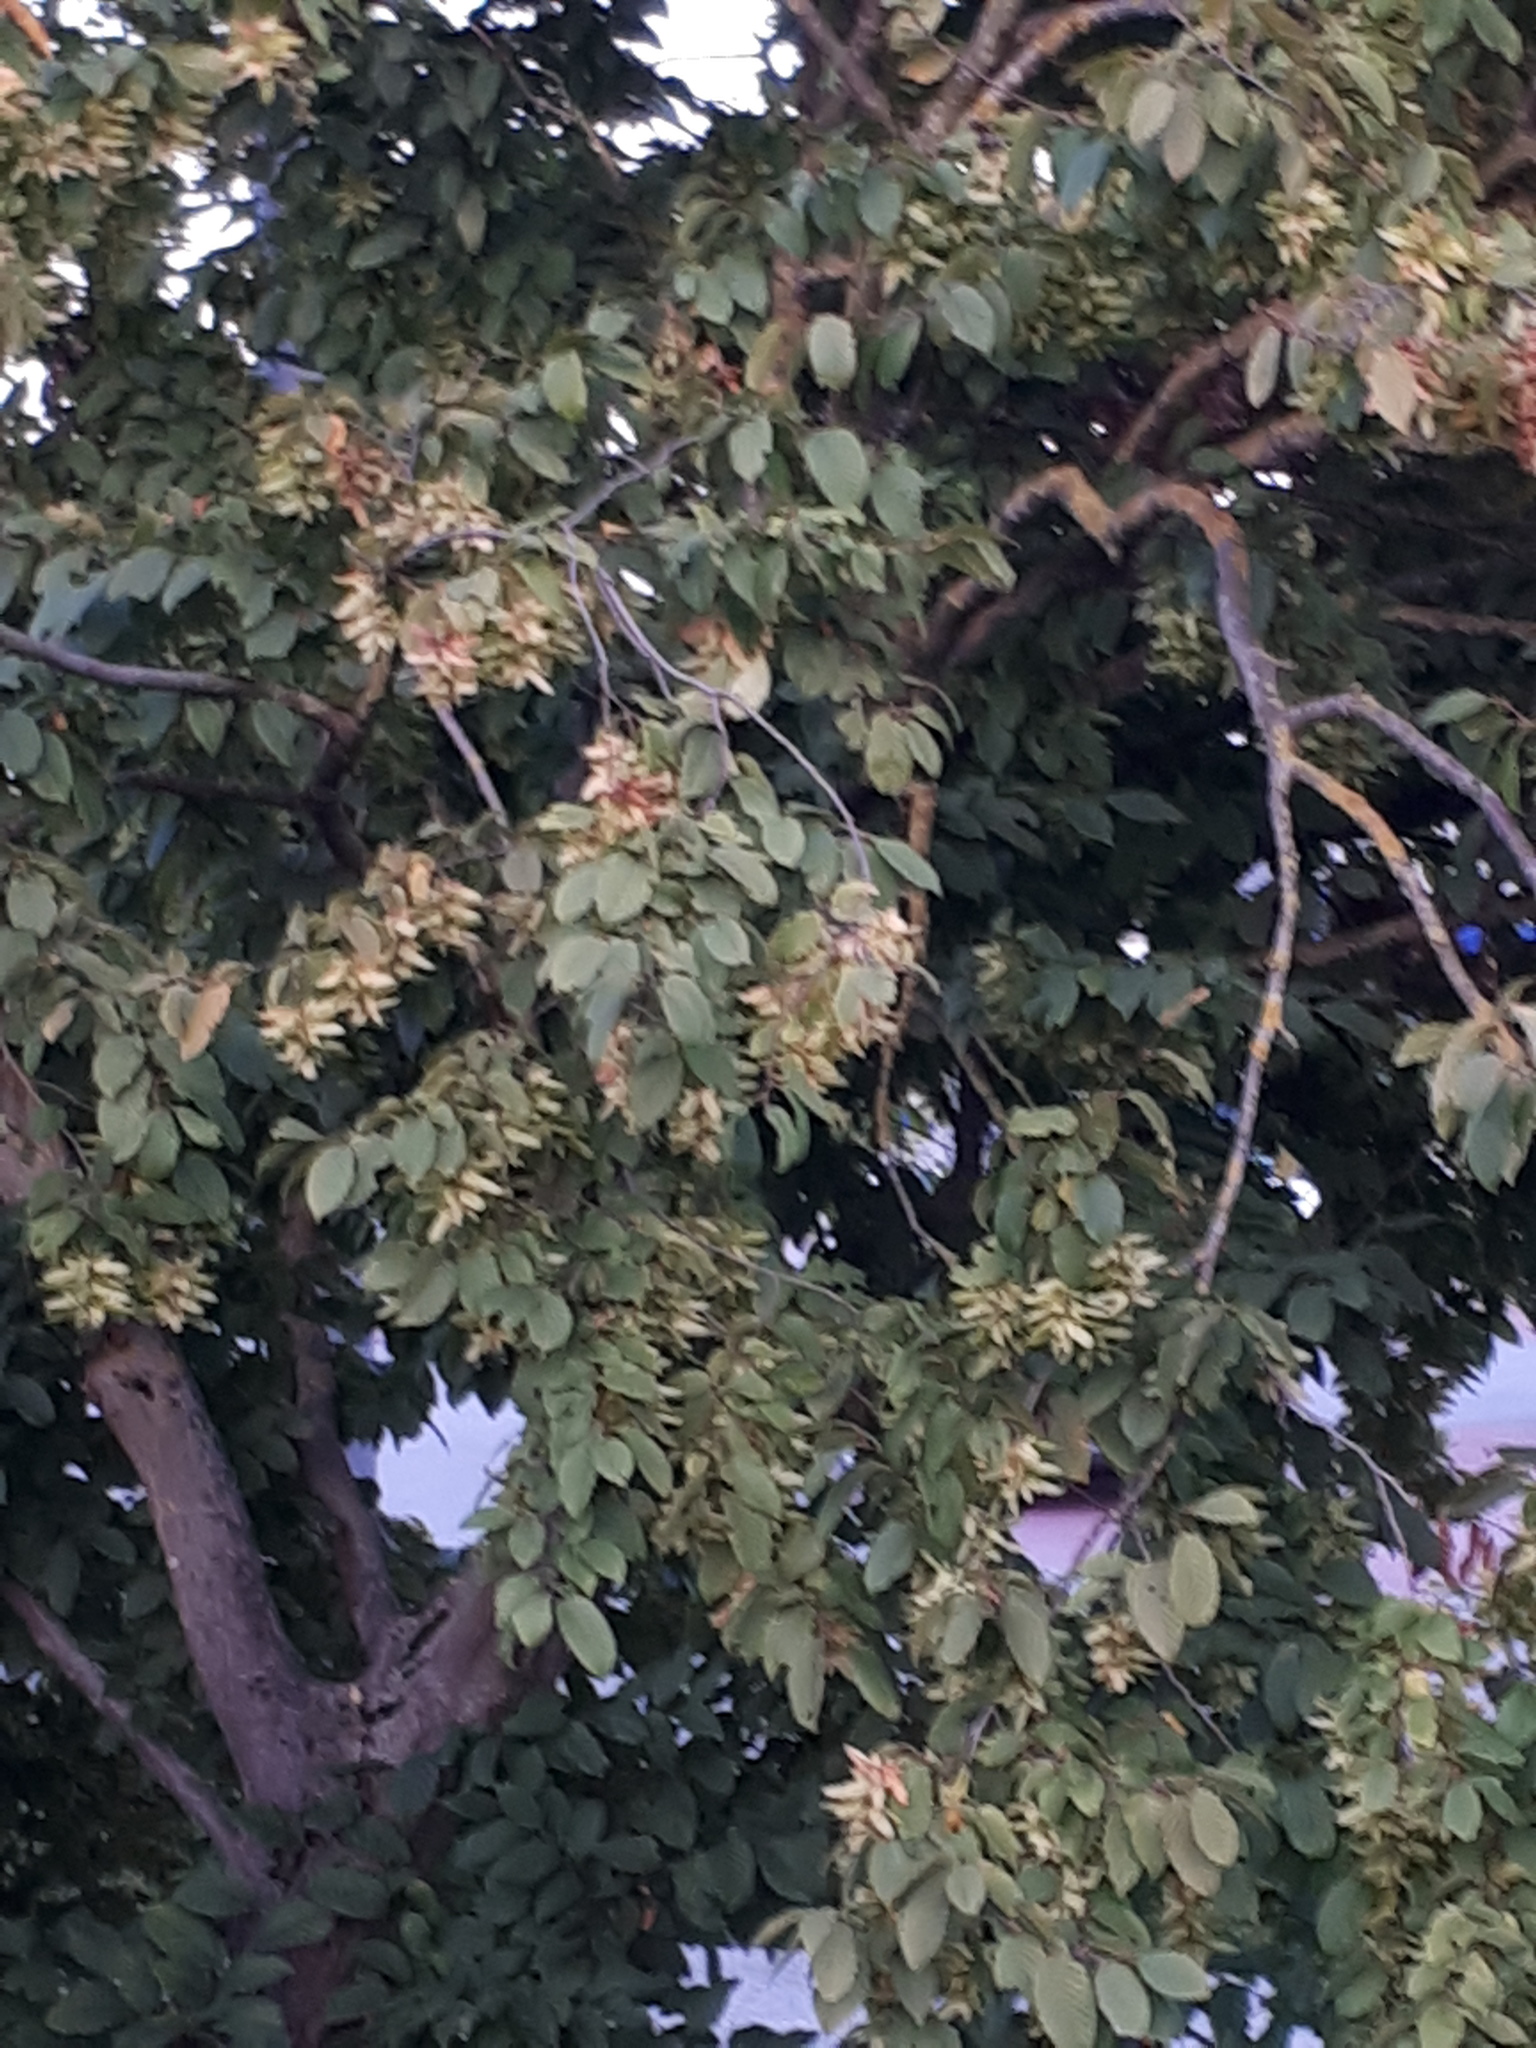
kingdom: Plantae
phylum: Tracheophyta
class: Magnoliopsida
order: Fagales
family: Betulaceae
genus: Carpinus
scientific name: Carpinus betulus
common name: Hornbeam
